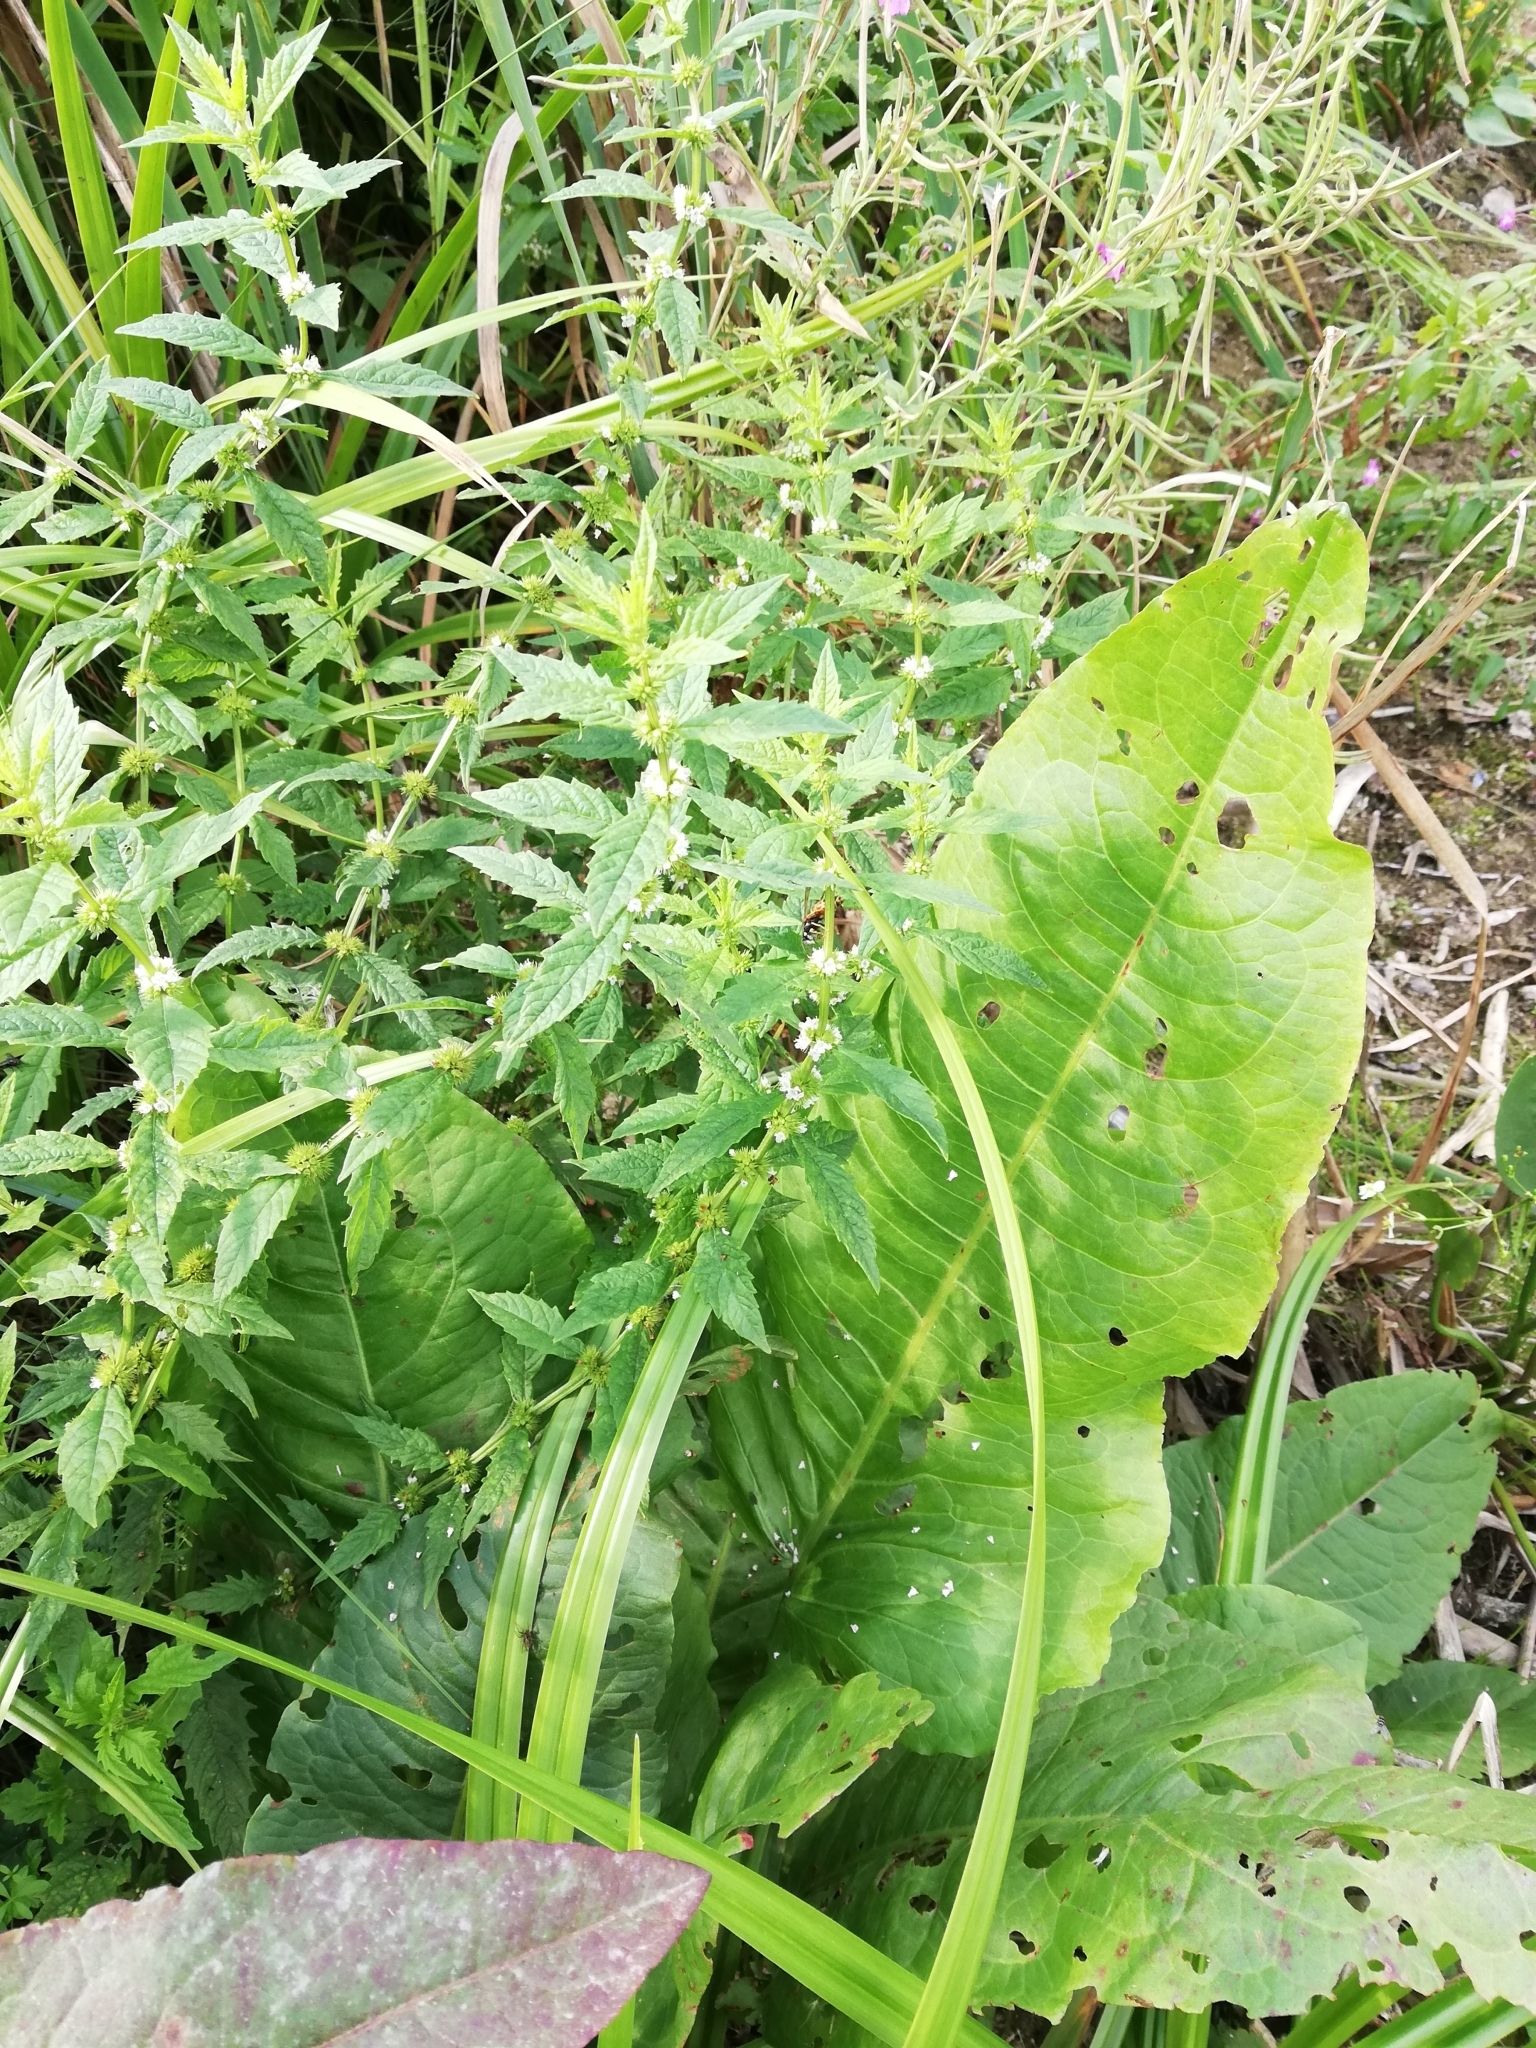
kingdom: Plantae
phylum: Tracheophyta
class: Magnoliopsida
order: Caryophyllales
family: Polygonaceae
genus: Rumex
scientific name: Rumex aquaticus
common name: Scottish dock
